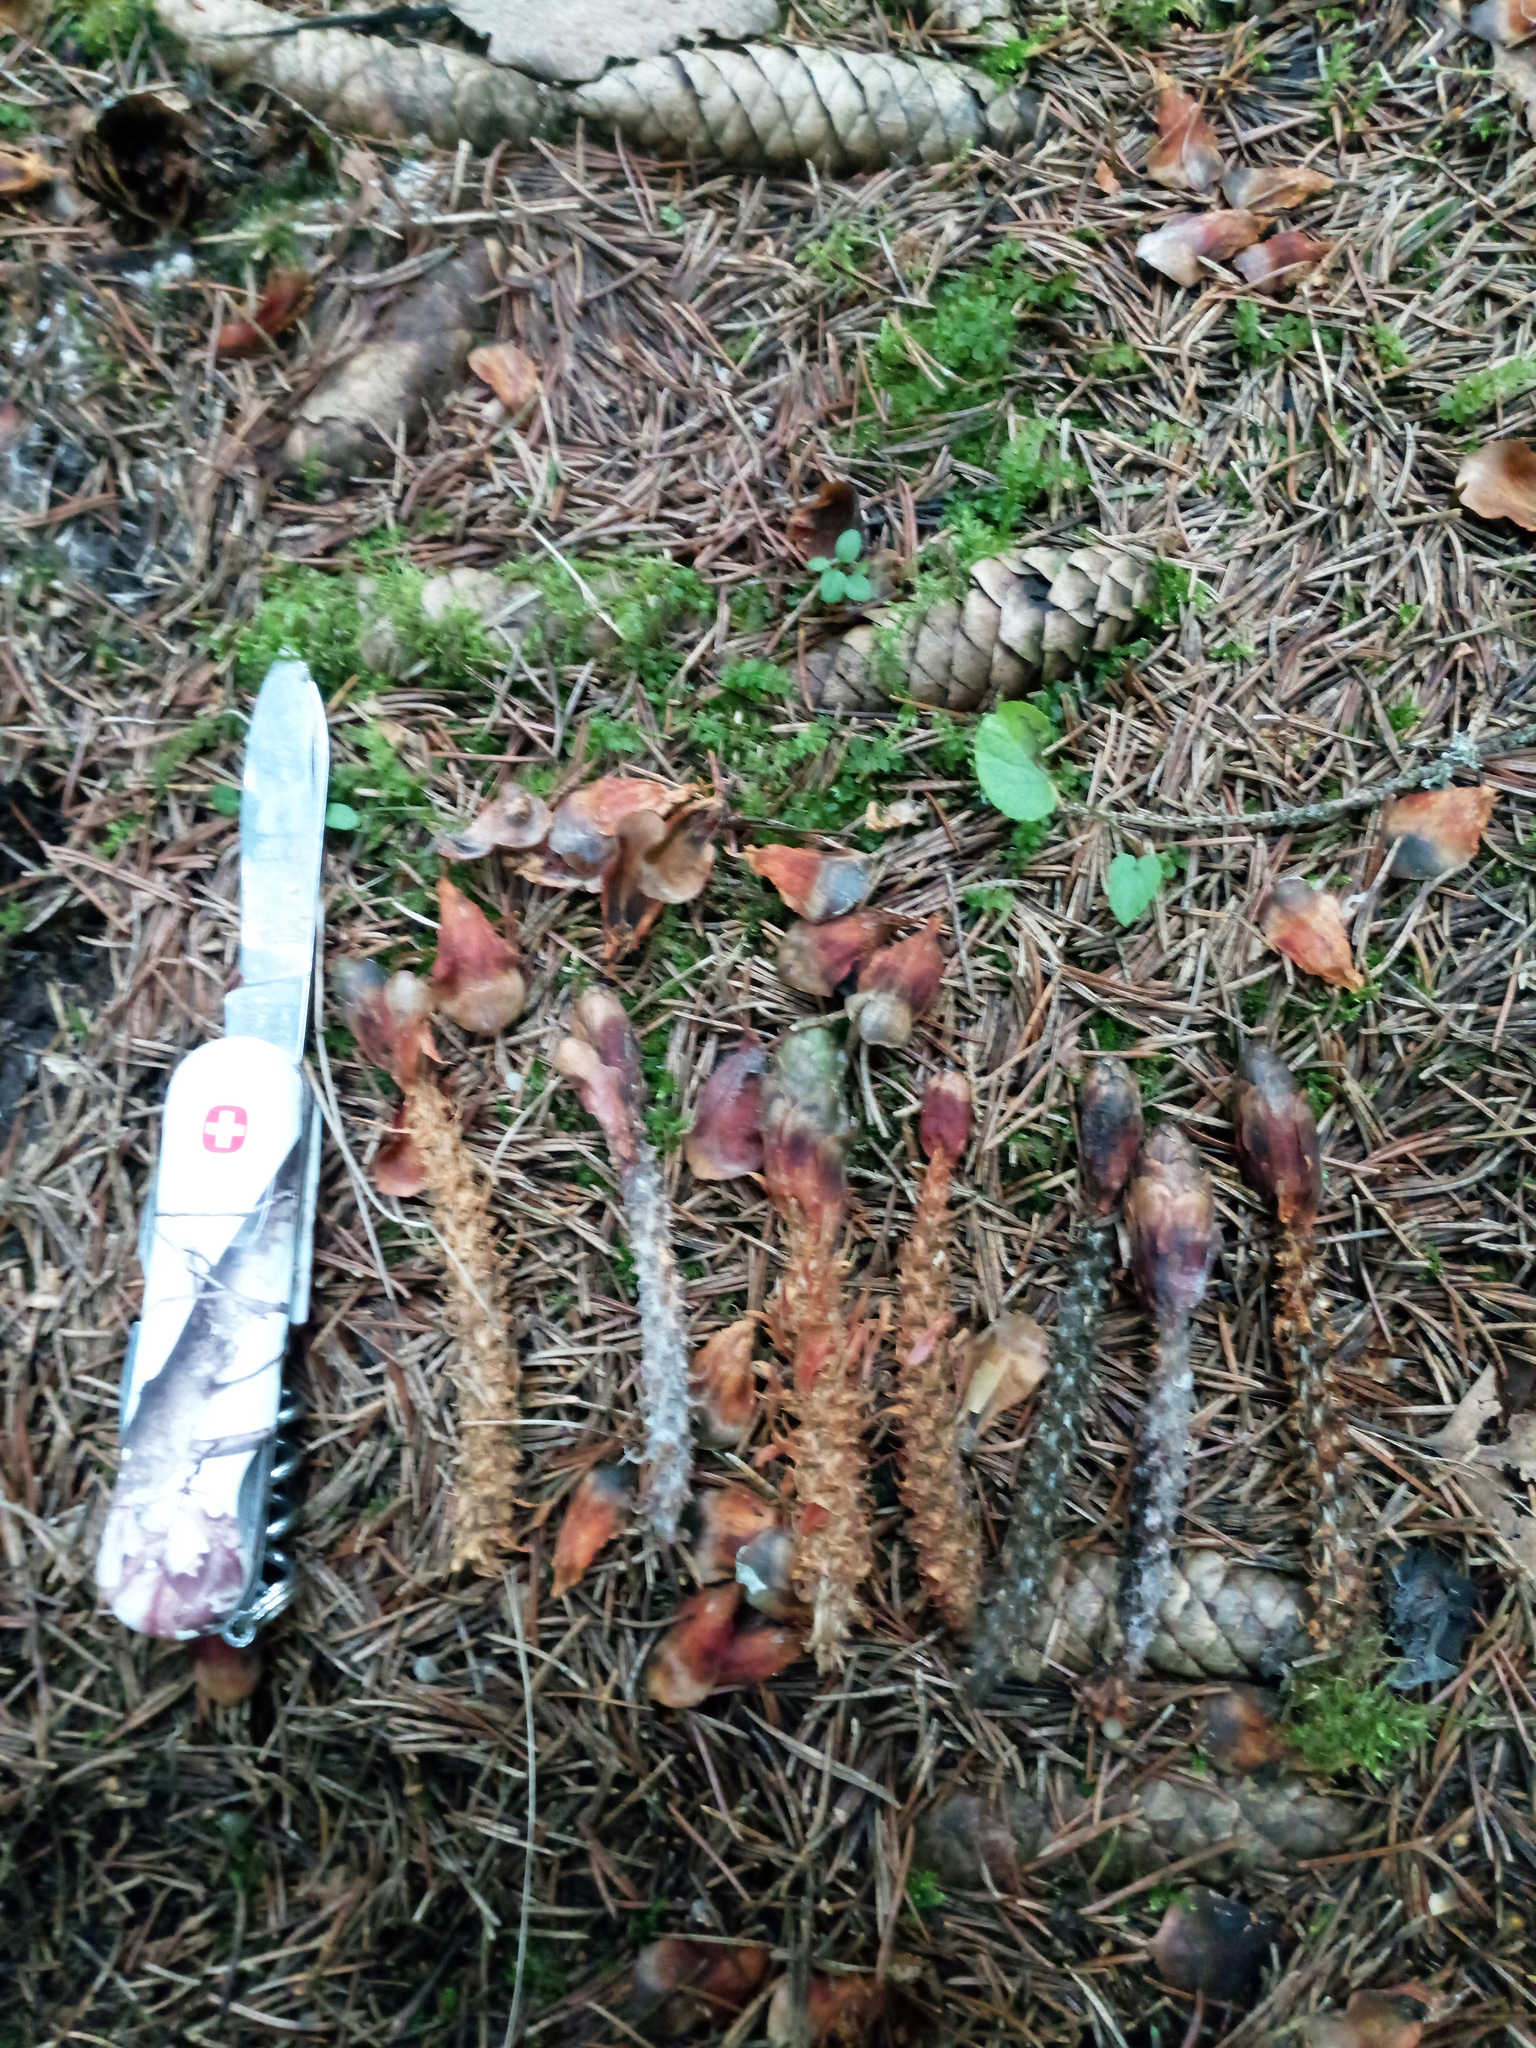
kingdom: Animalia
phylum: Chordata
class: Mammalia
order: Rodentia
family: Sciuridae
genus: Sciurus
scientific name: Sciurus vulgaris
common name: Eurasian red squirrel
